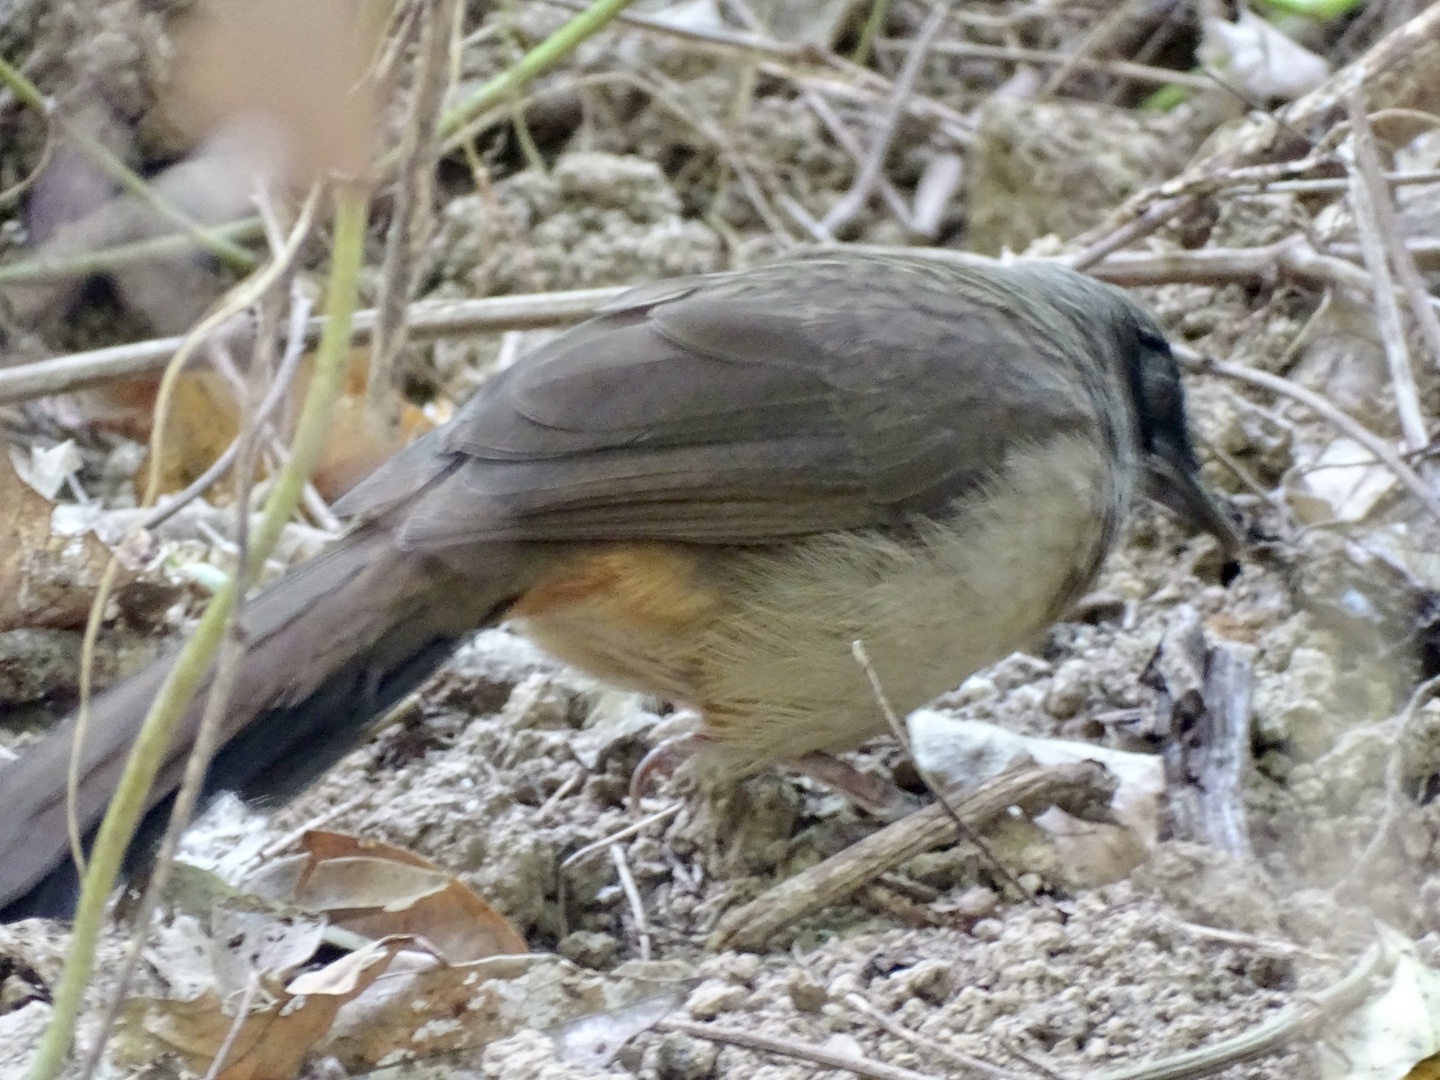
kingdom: Animalia
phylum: Chordata
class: Aves
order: Passeriformes
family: Leiothrichidae
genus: Garrulax
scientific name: Garrulax perspicillatus
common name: Masked laughingthrush
